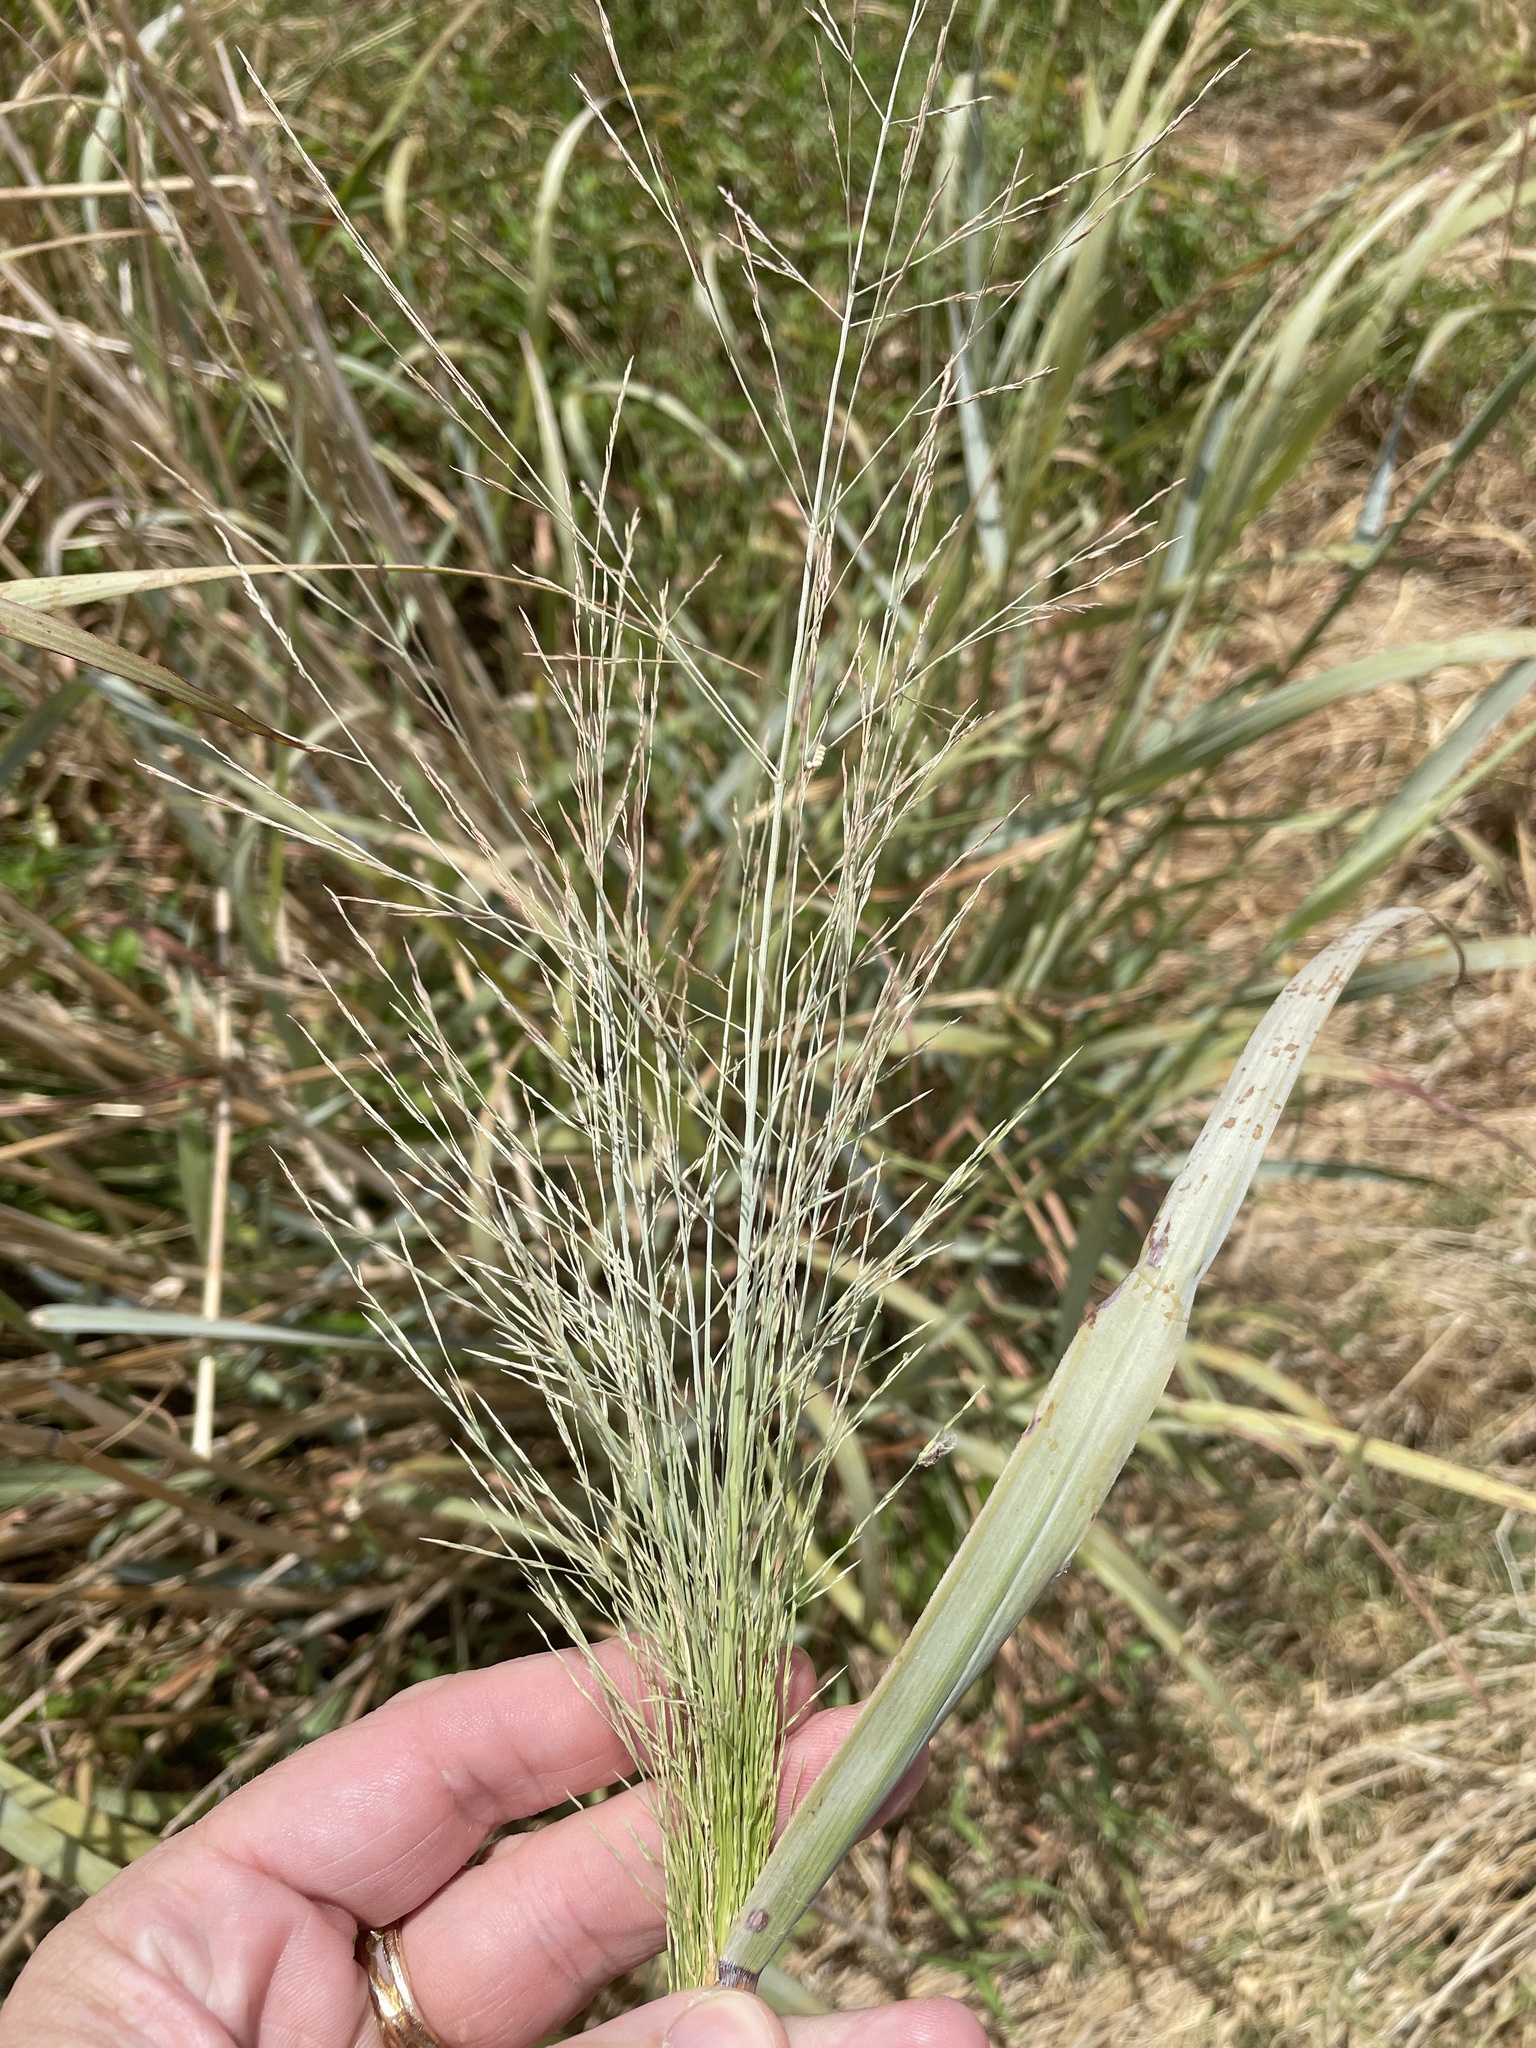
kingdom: Plantae
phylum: Tracheophyta
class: Liliopsida
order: Poales
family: Poaceae
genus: Panicum
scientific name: Panicum virgatum
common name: Switchgrass
